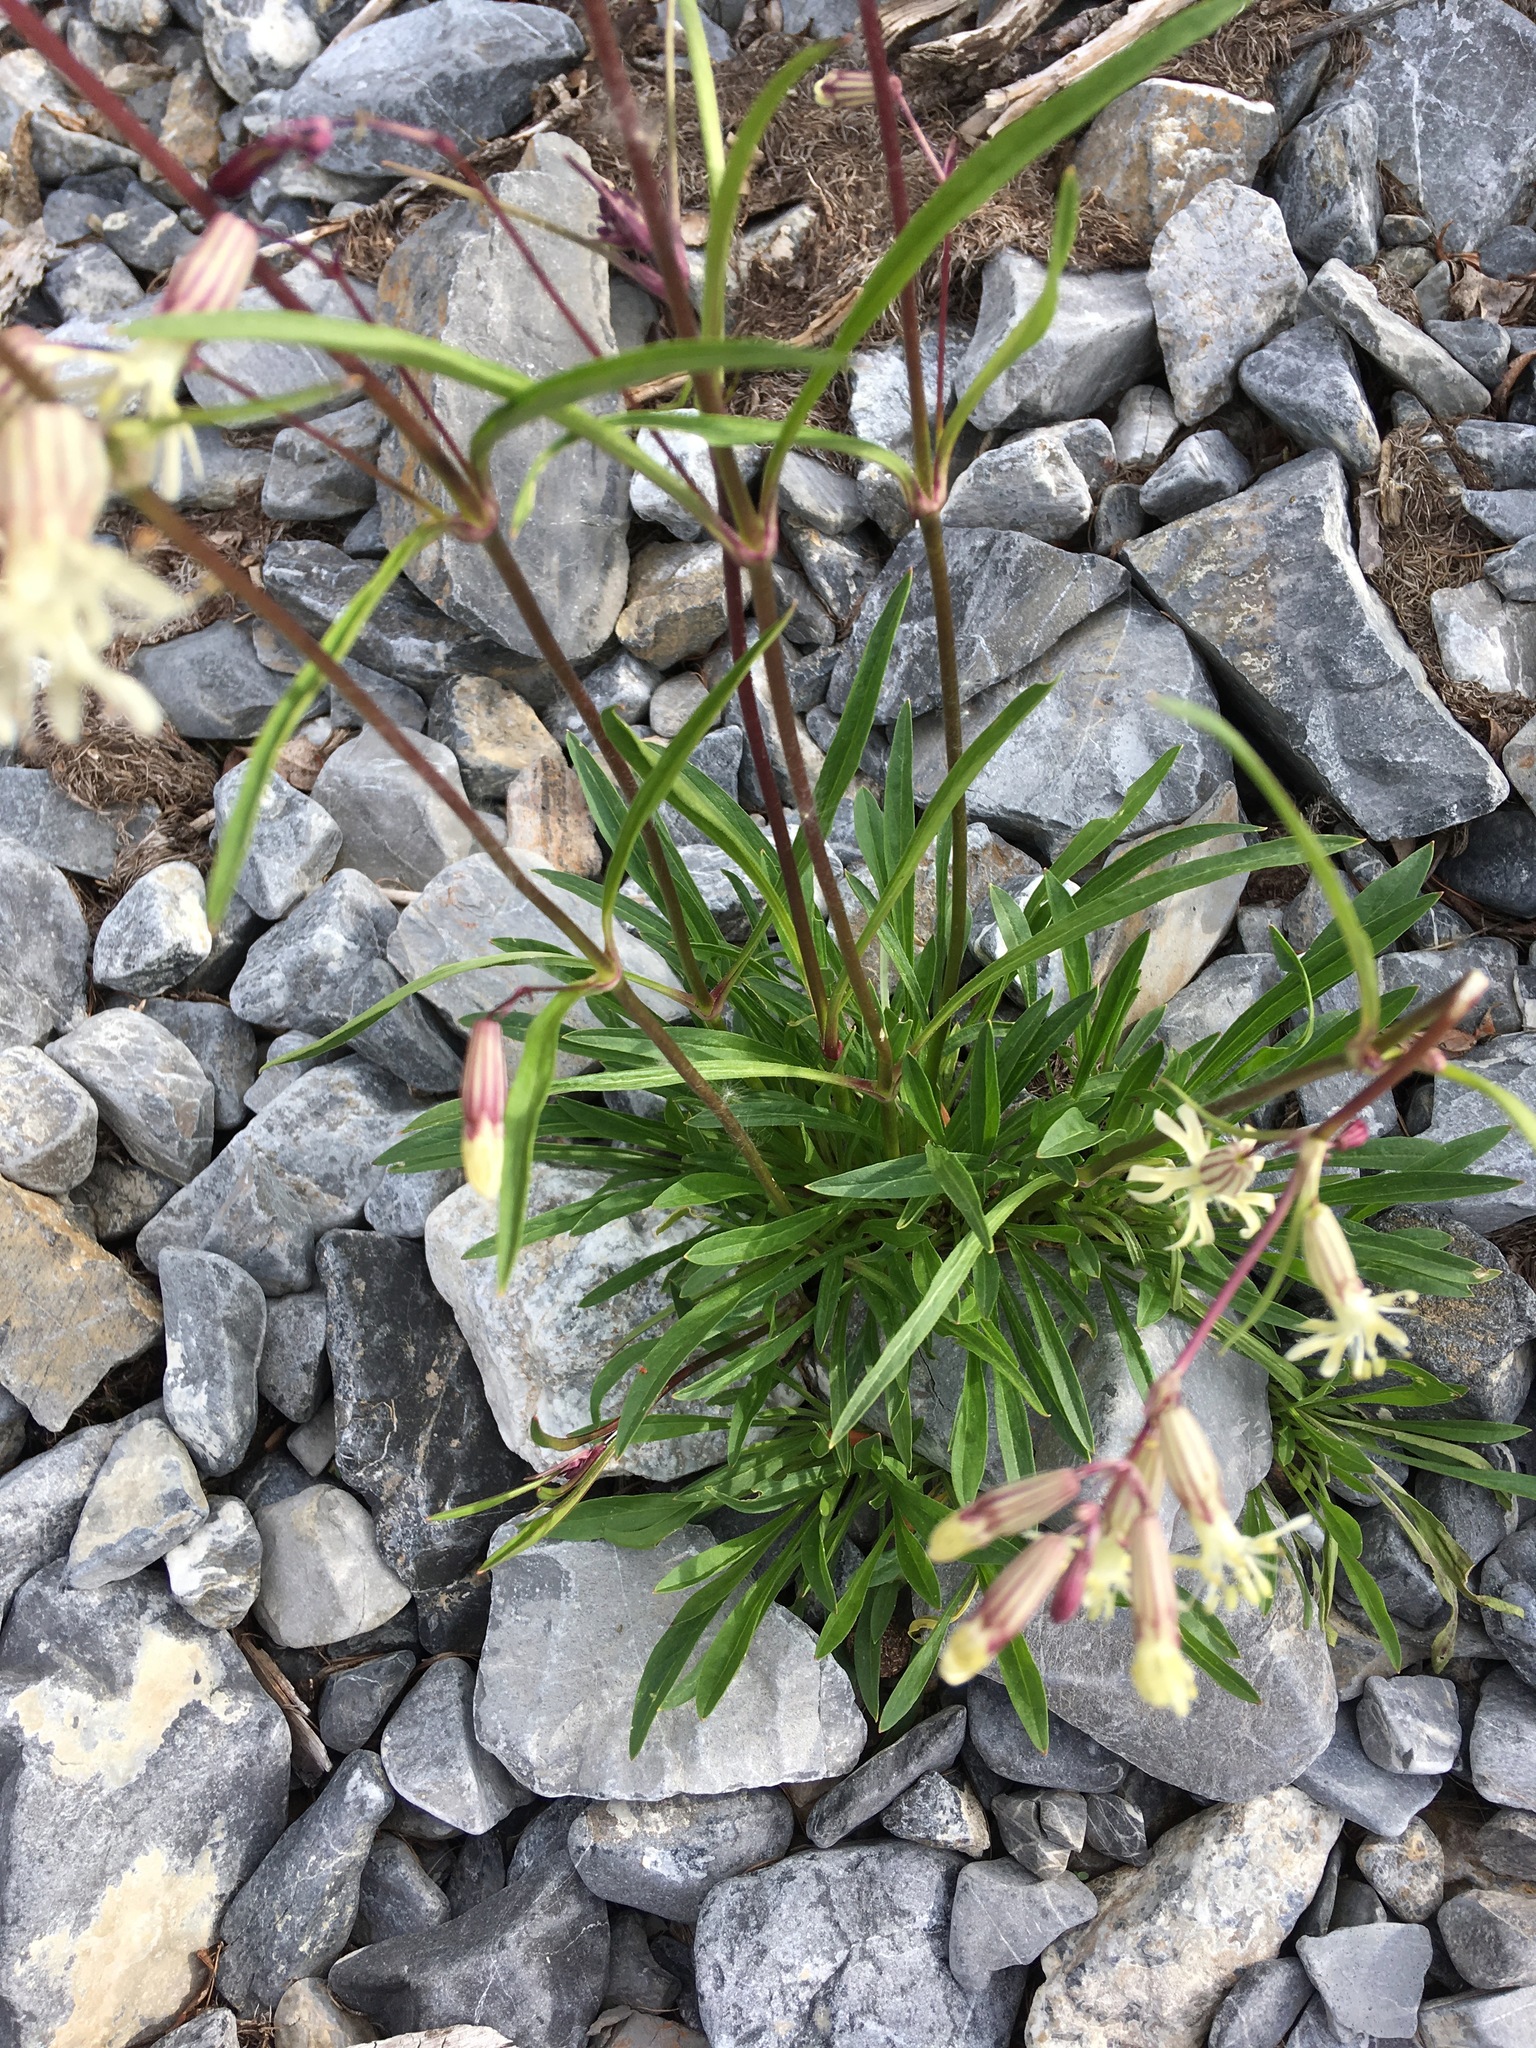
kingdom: Plantae
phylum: Tracheophyta
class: Magnoliopsida
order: Caryophyllales
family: Caryophyllaceae
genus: Silene
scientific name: Silene chamarensis
